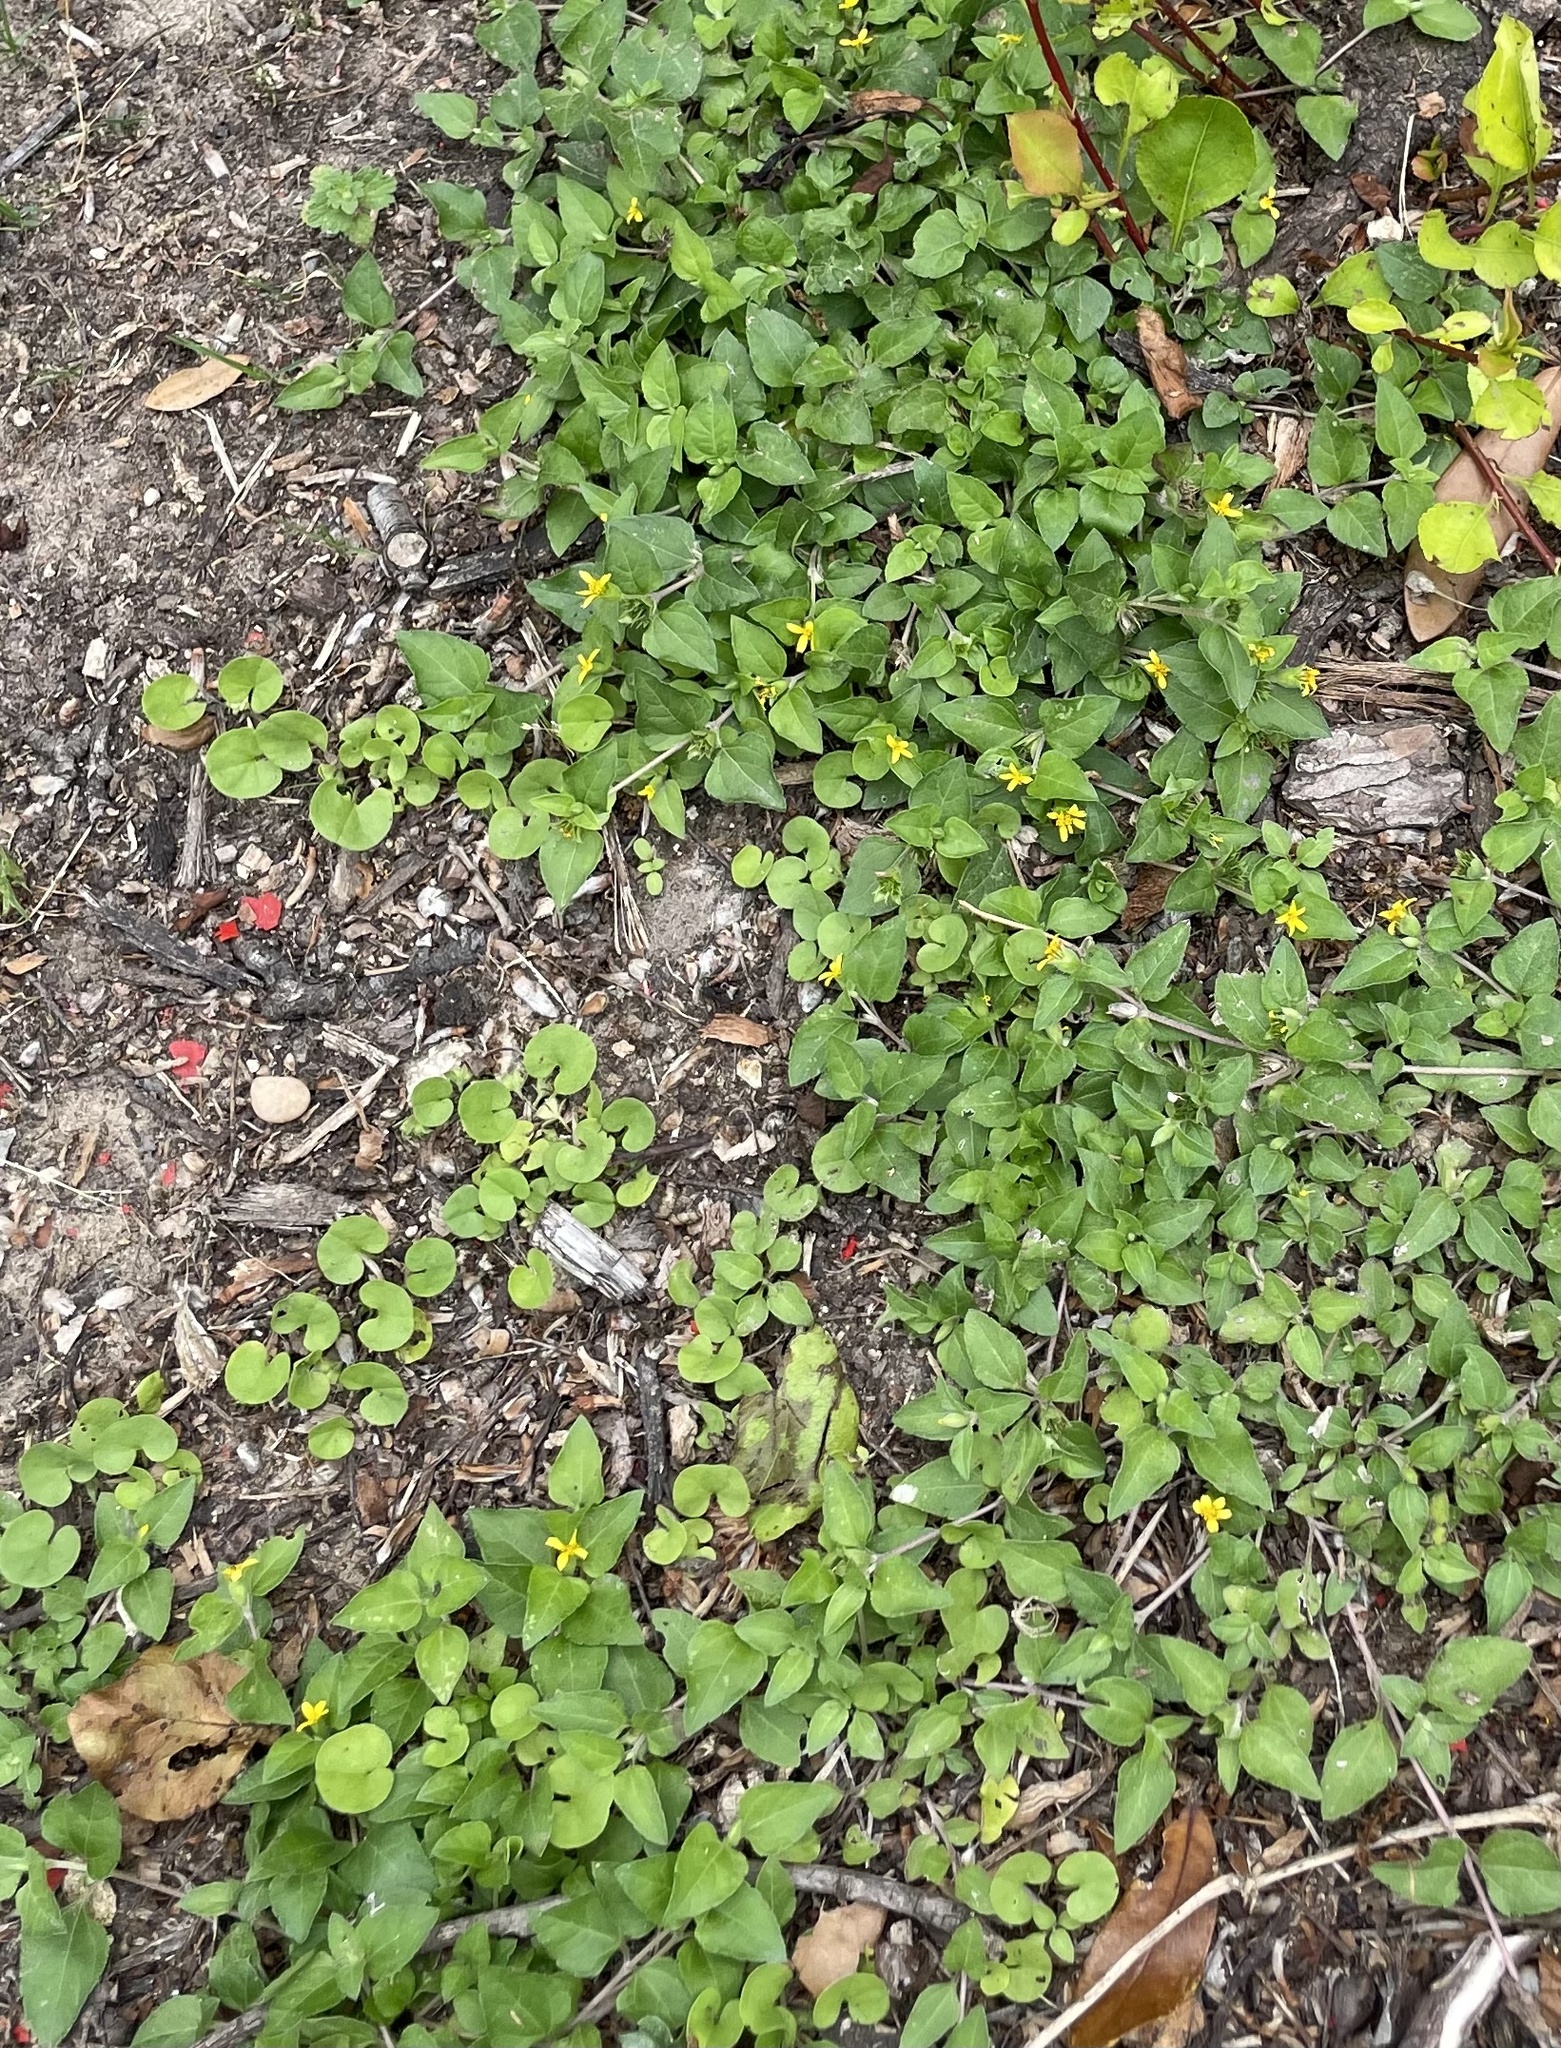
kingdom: Plantae
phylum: Tracheophyta
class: Magnoliopsida
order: Asterales
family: Asteraceae
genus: Calyptocarpus
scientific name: Calyptocarpus vialis
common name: Straggler daisy
